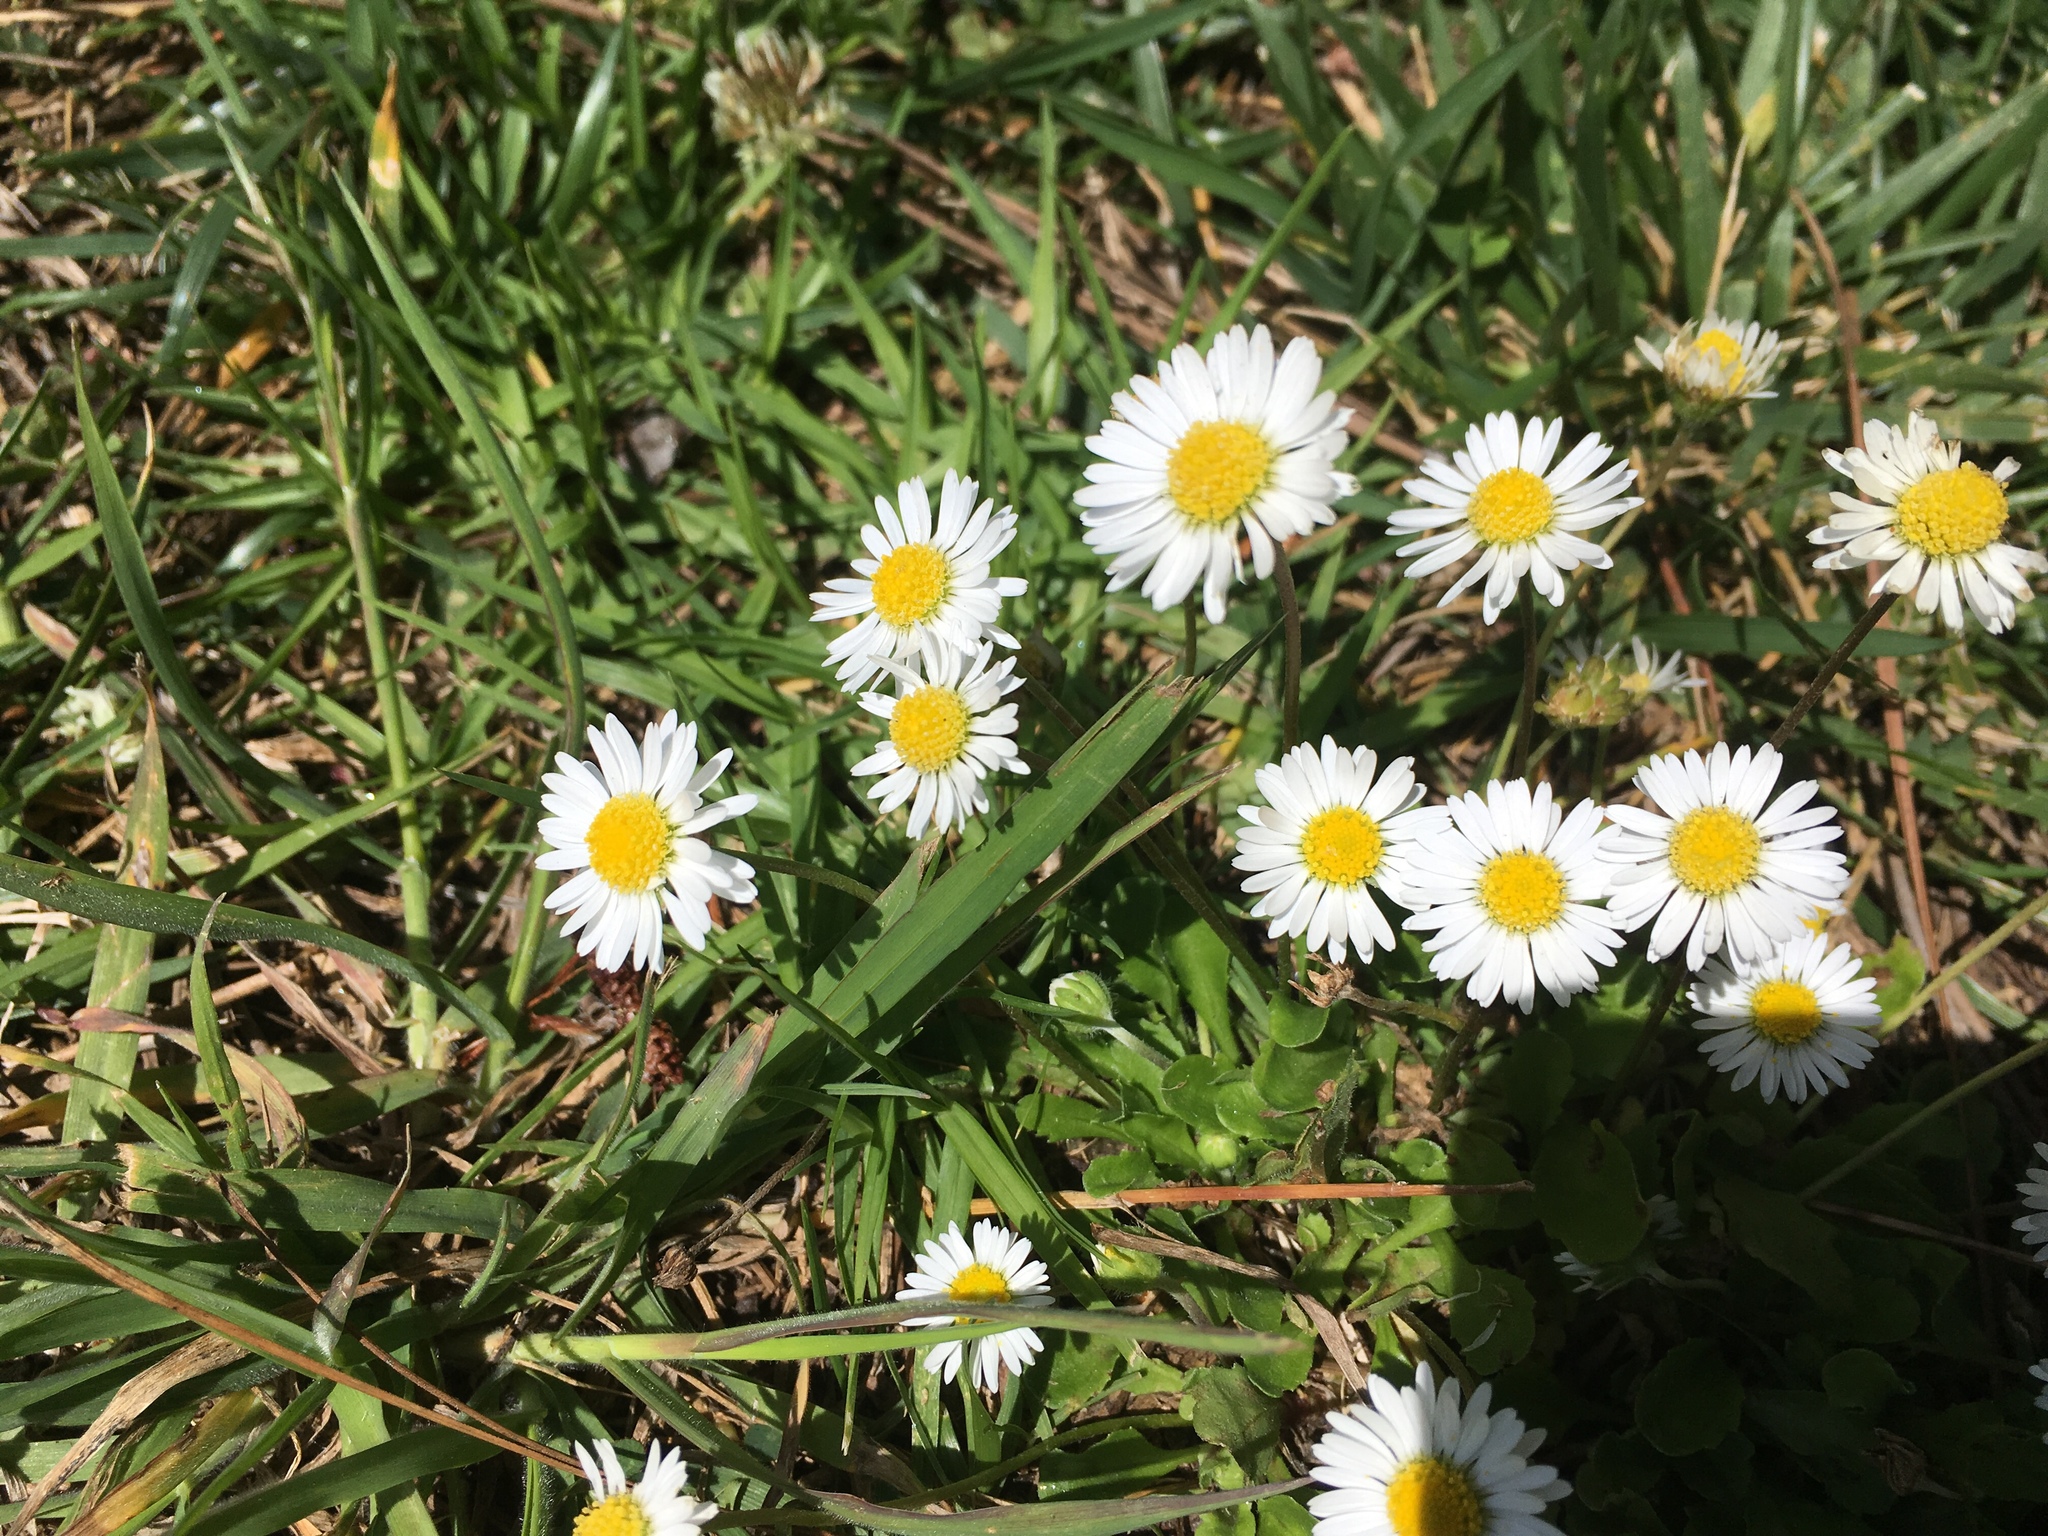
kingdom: Plantae
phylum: Tracheophyta
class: Magnoliopsida
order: Asterales
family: Asteraceae
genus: Bellis
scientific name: Bellis perennis
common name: Lawndaisy
